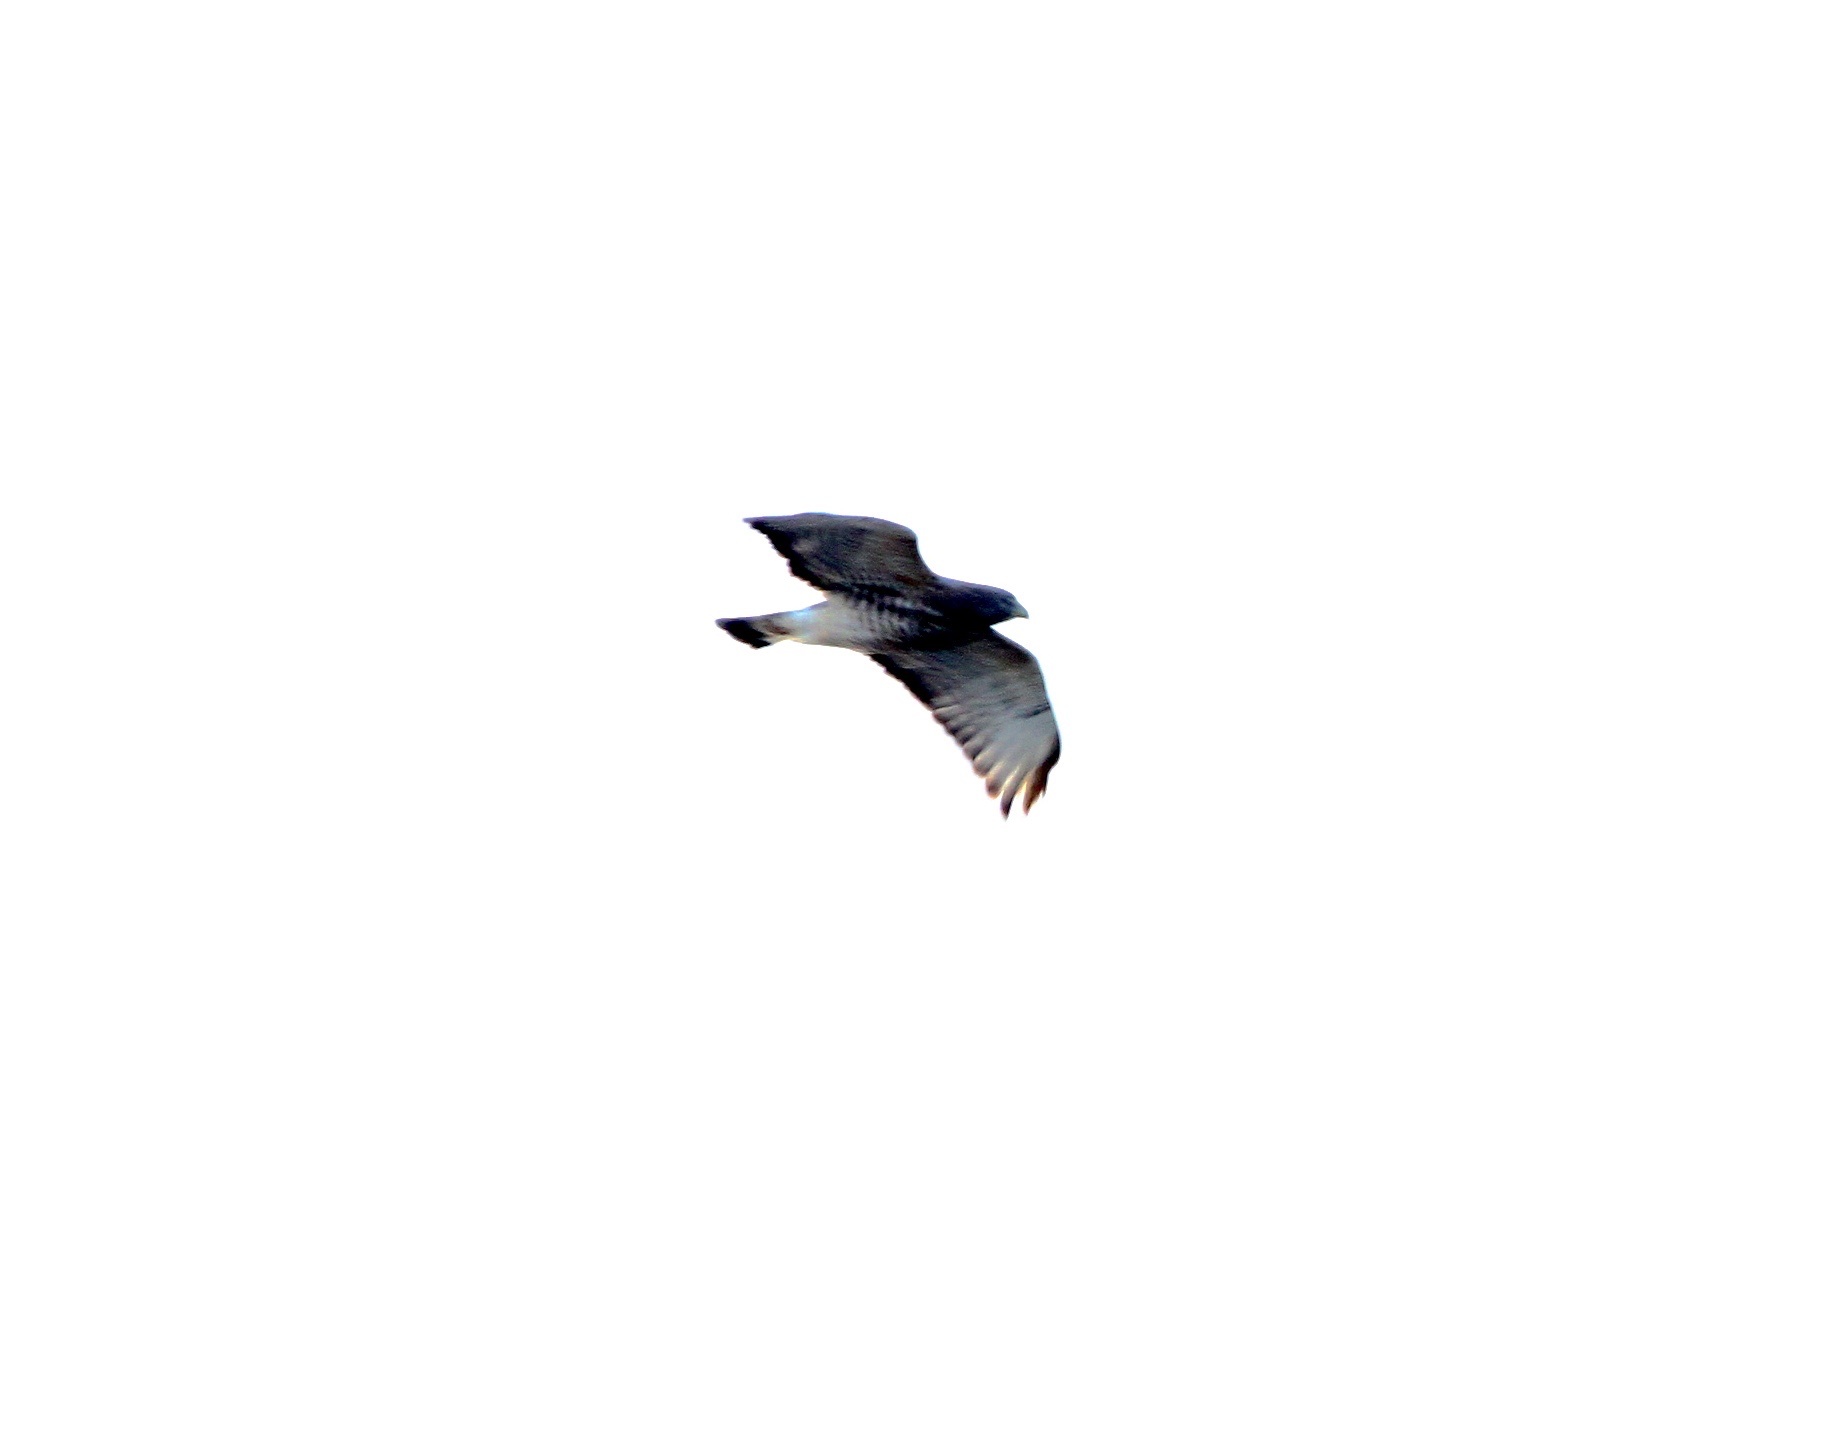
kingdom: Animalia
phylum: Chordata
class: Aves
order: Accipitriformes
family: Accipitridae
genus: Buteo
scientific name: Buteo platypterus
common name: Broad-winged hawk
